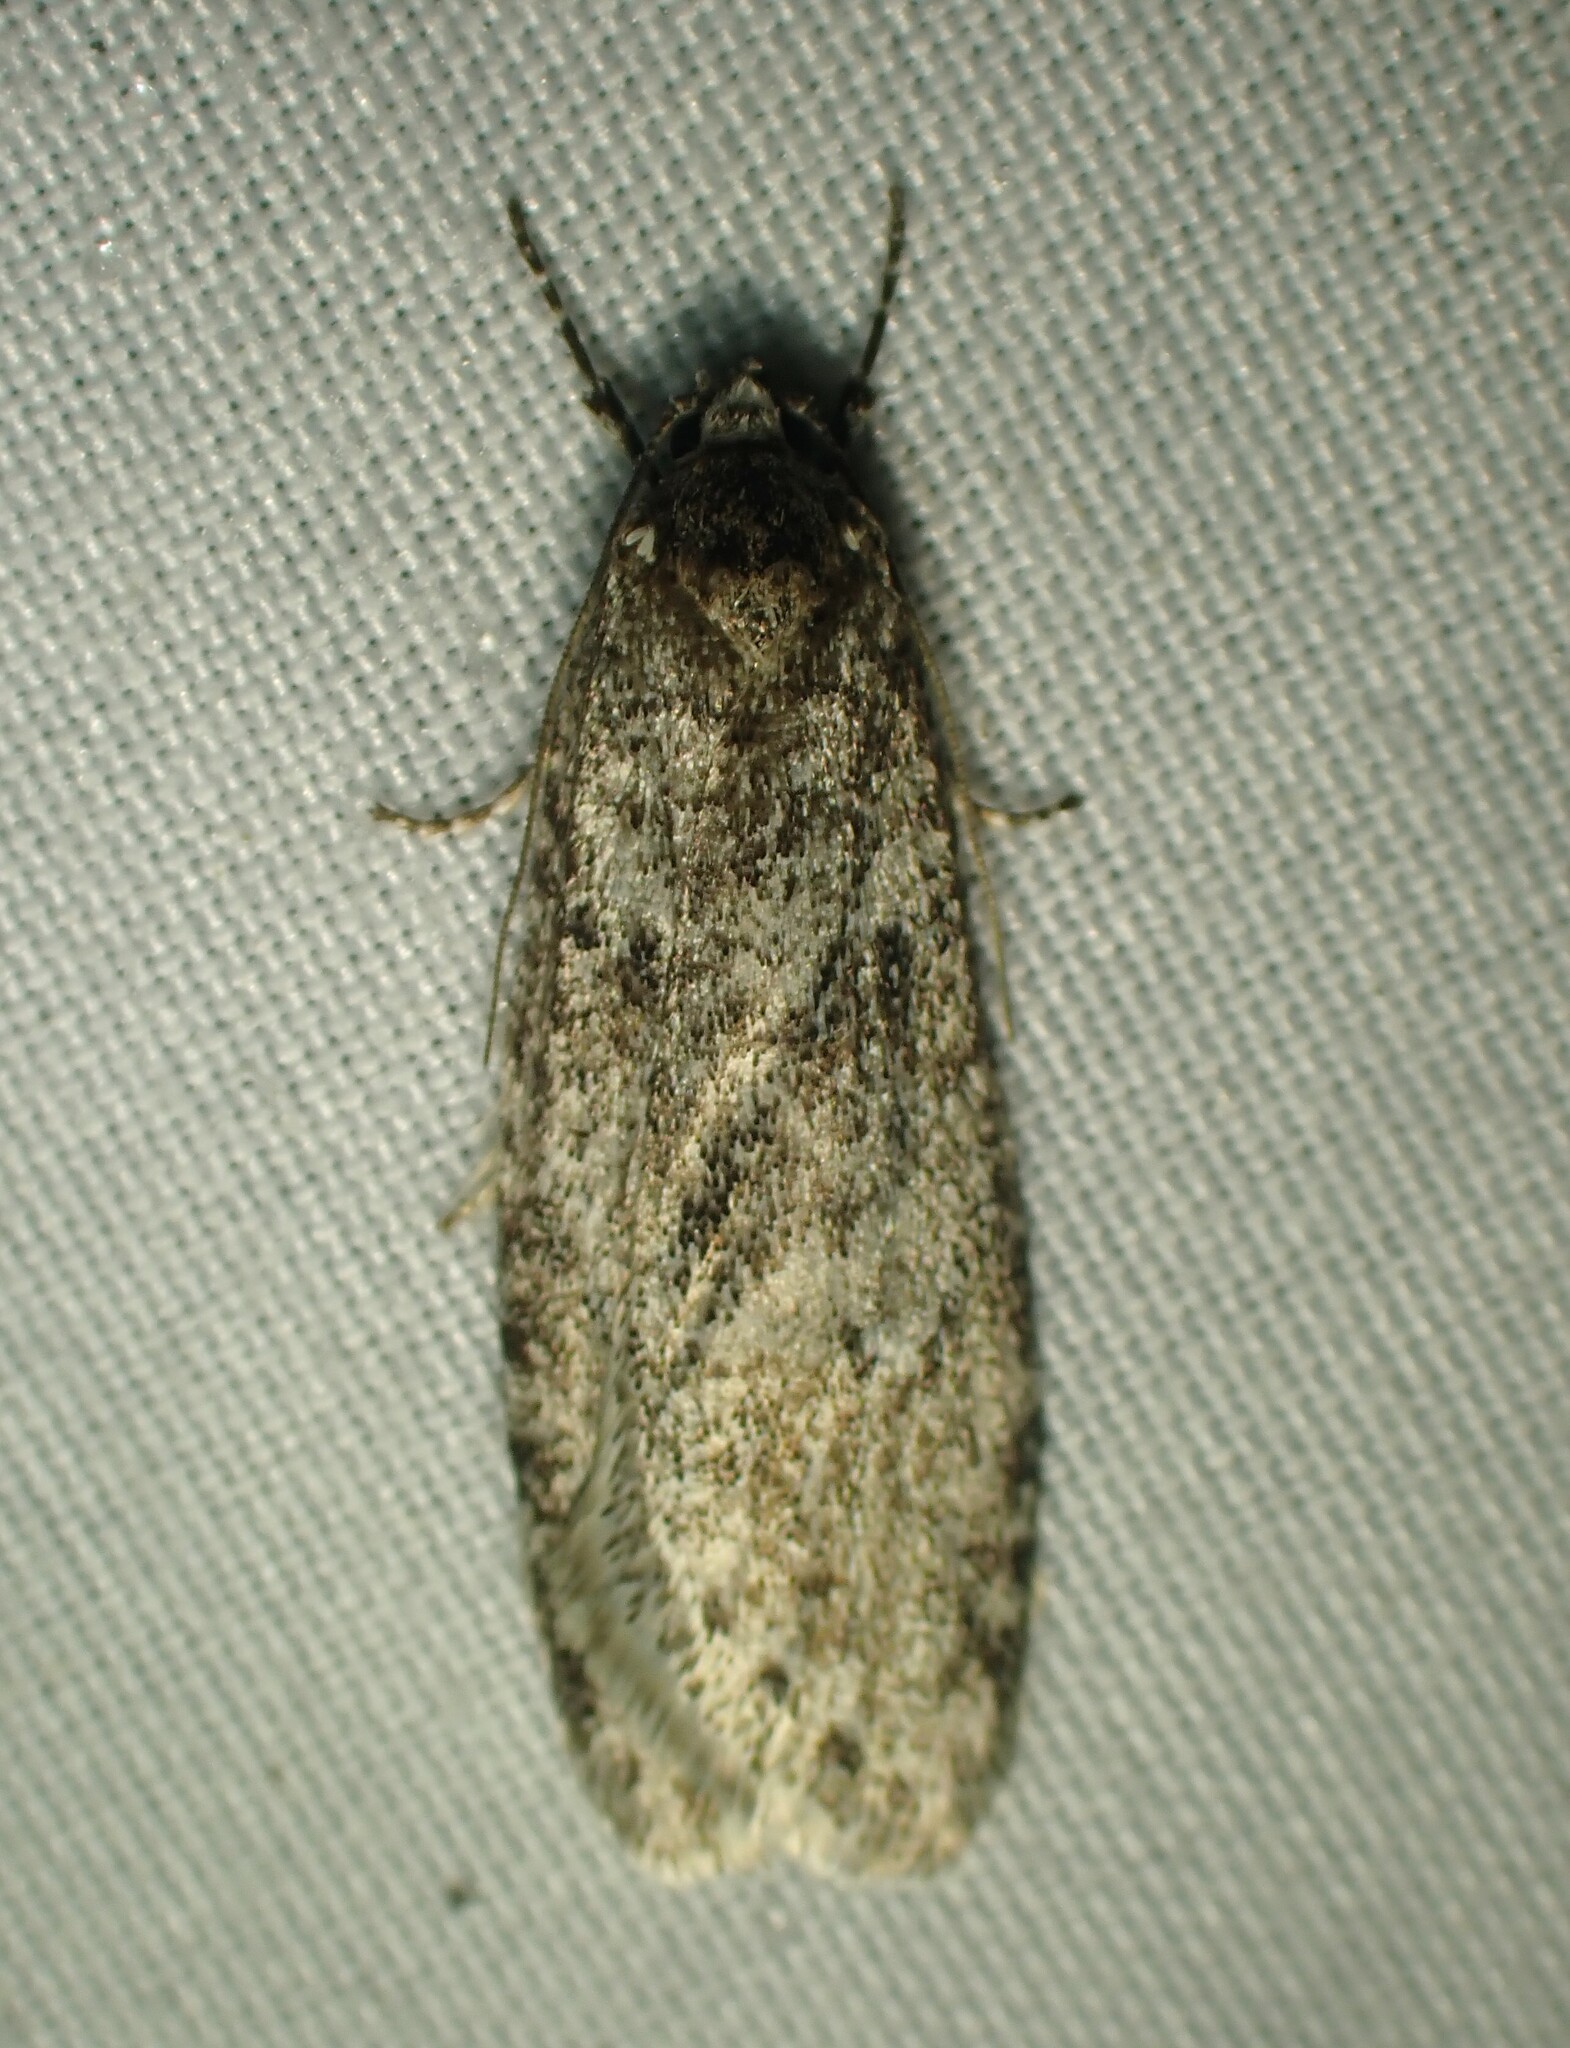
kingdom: Animalia
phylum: Arthropoda
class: Insecta
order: Lepidoptera
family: Depressariidae
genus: Semioscopis
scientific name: Semioscopis inornata
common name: Poplar micromoth
